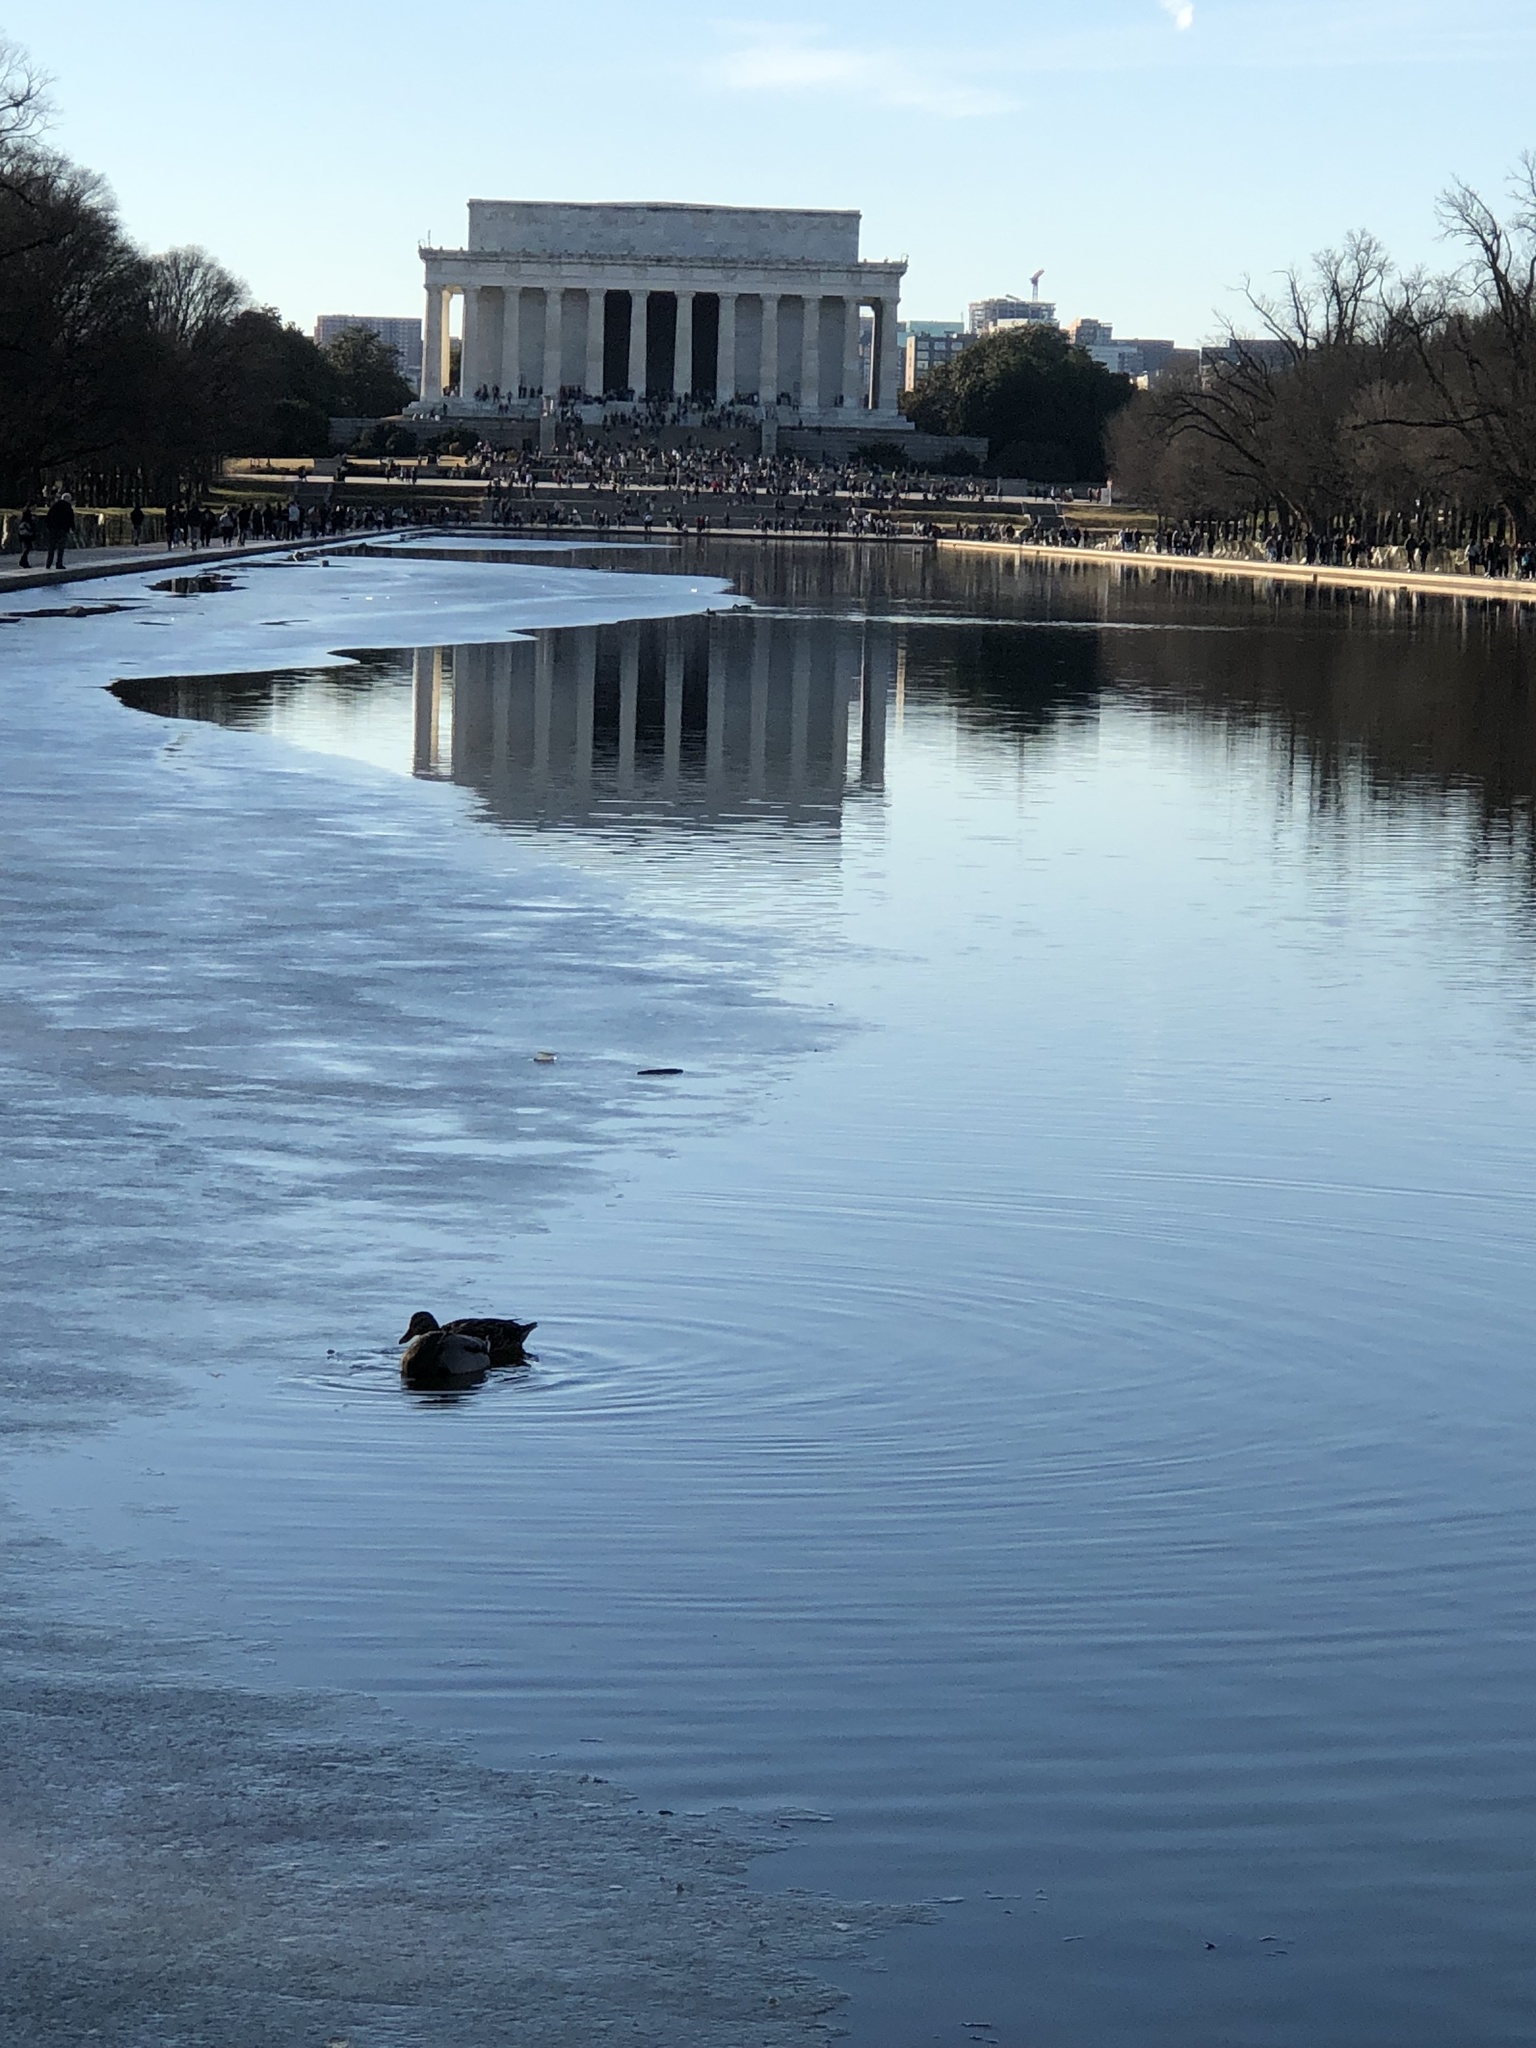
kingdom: Animalia
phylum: Chordata
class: Aves
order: Anseriformes
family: Anatidae
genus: Anas
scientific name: Anas platyrhynchos
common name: Mallard
